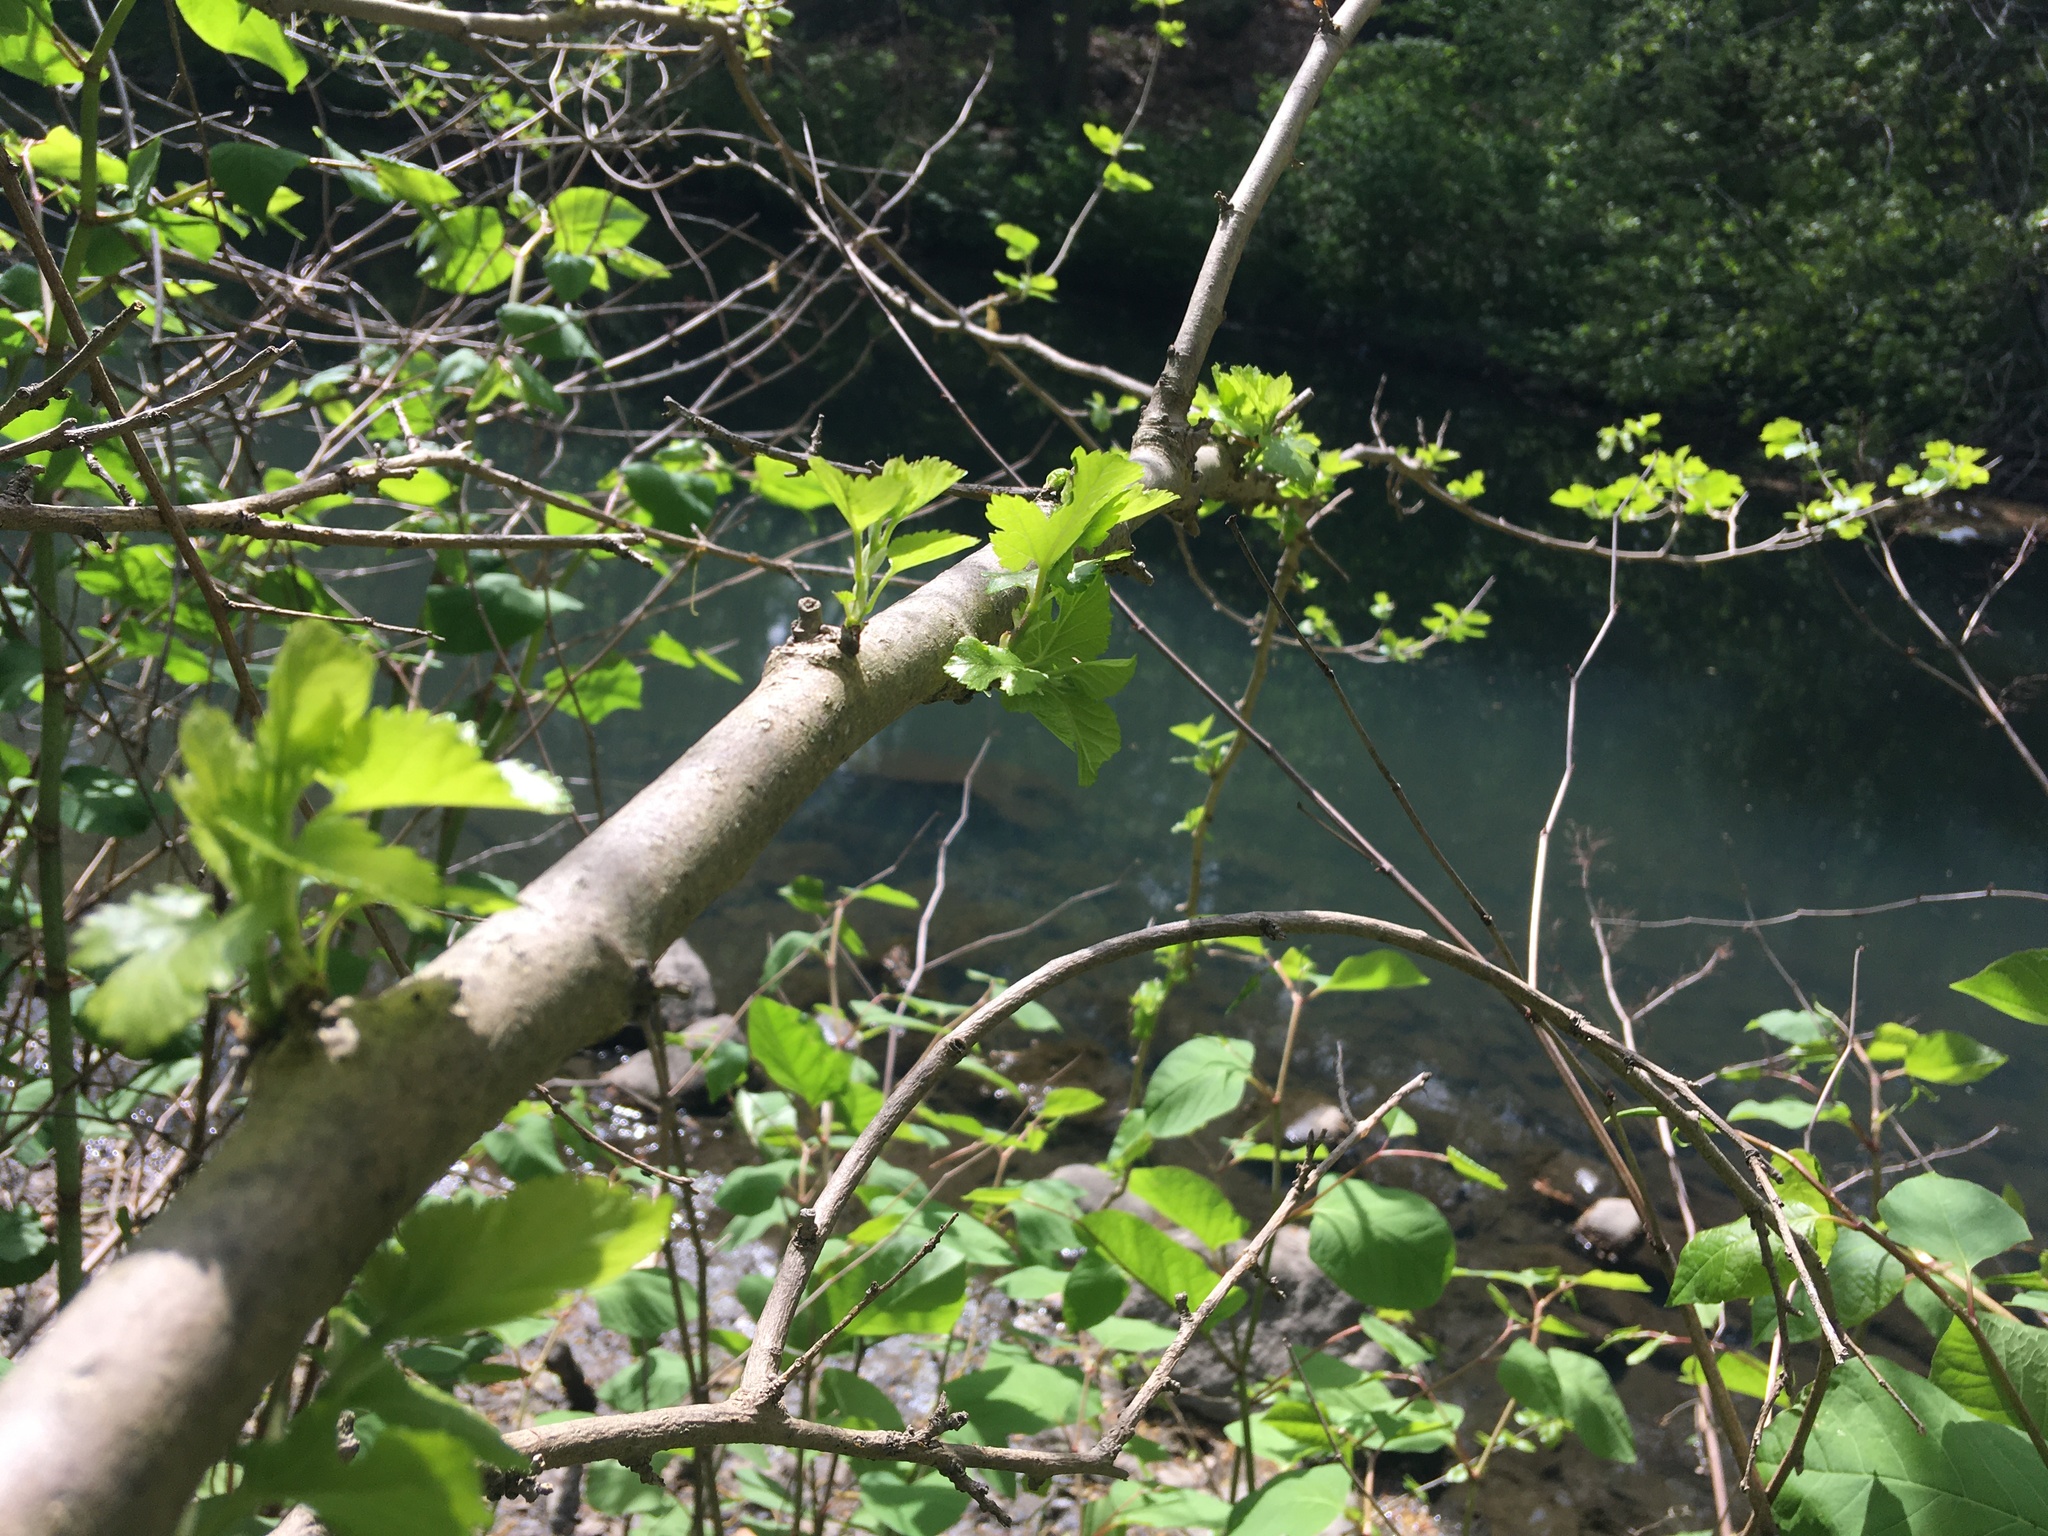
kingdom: Plantae
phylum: Tracheophyta
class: Magnoliopsida
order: Rosales
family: Moraceae
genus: Morus
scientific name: Morus alba
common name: White mulberry
